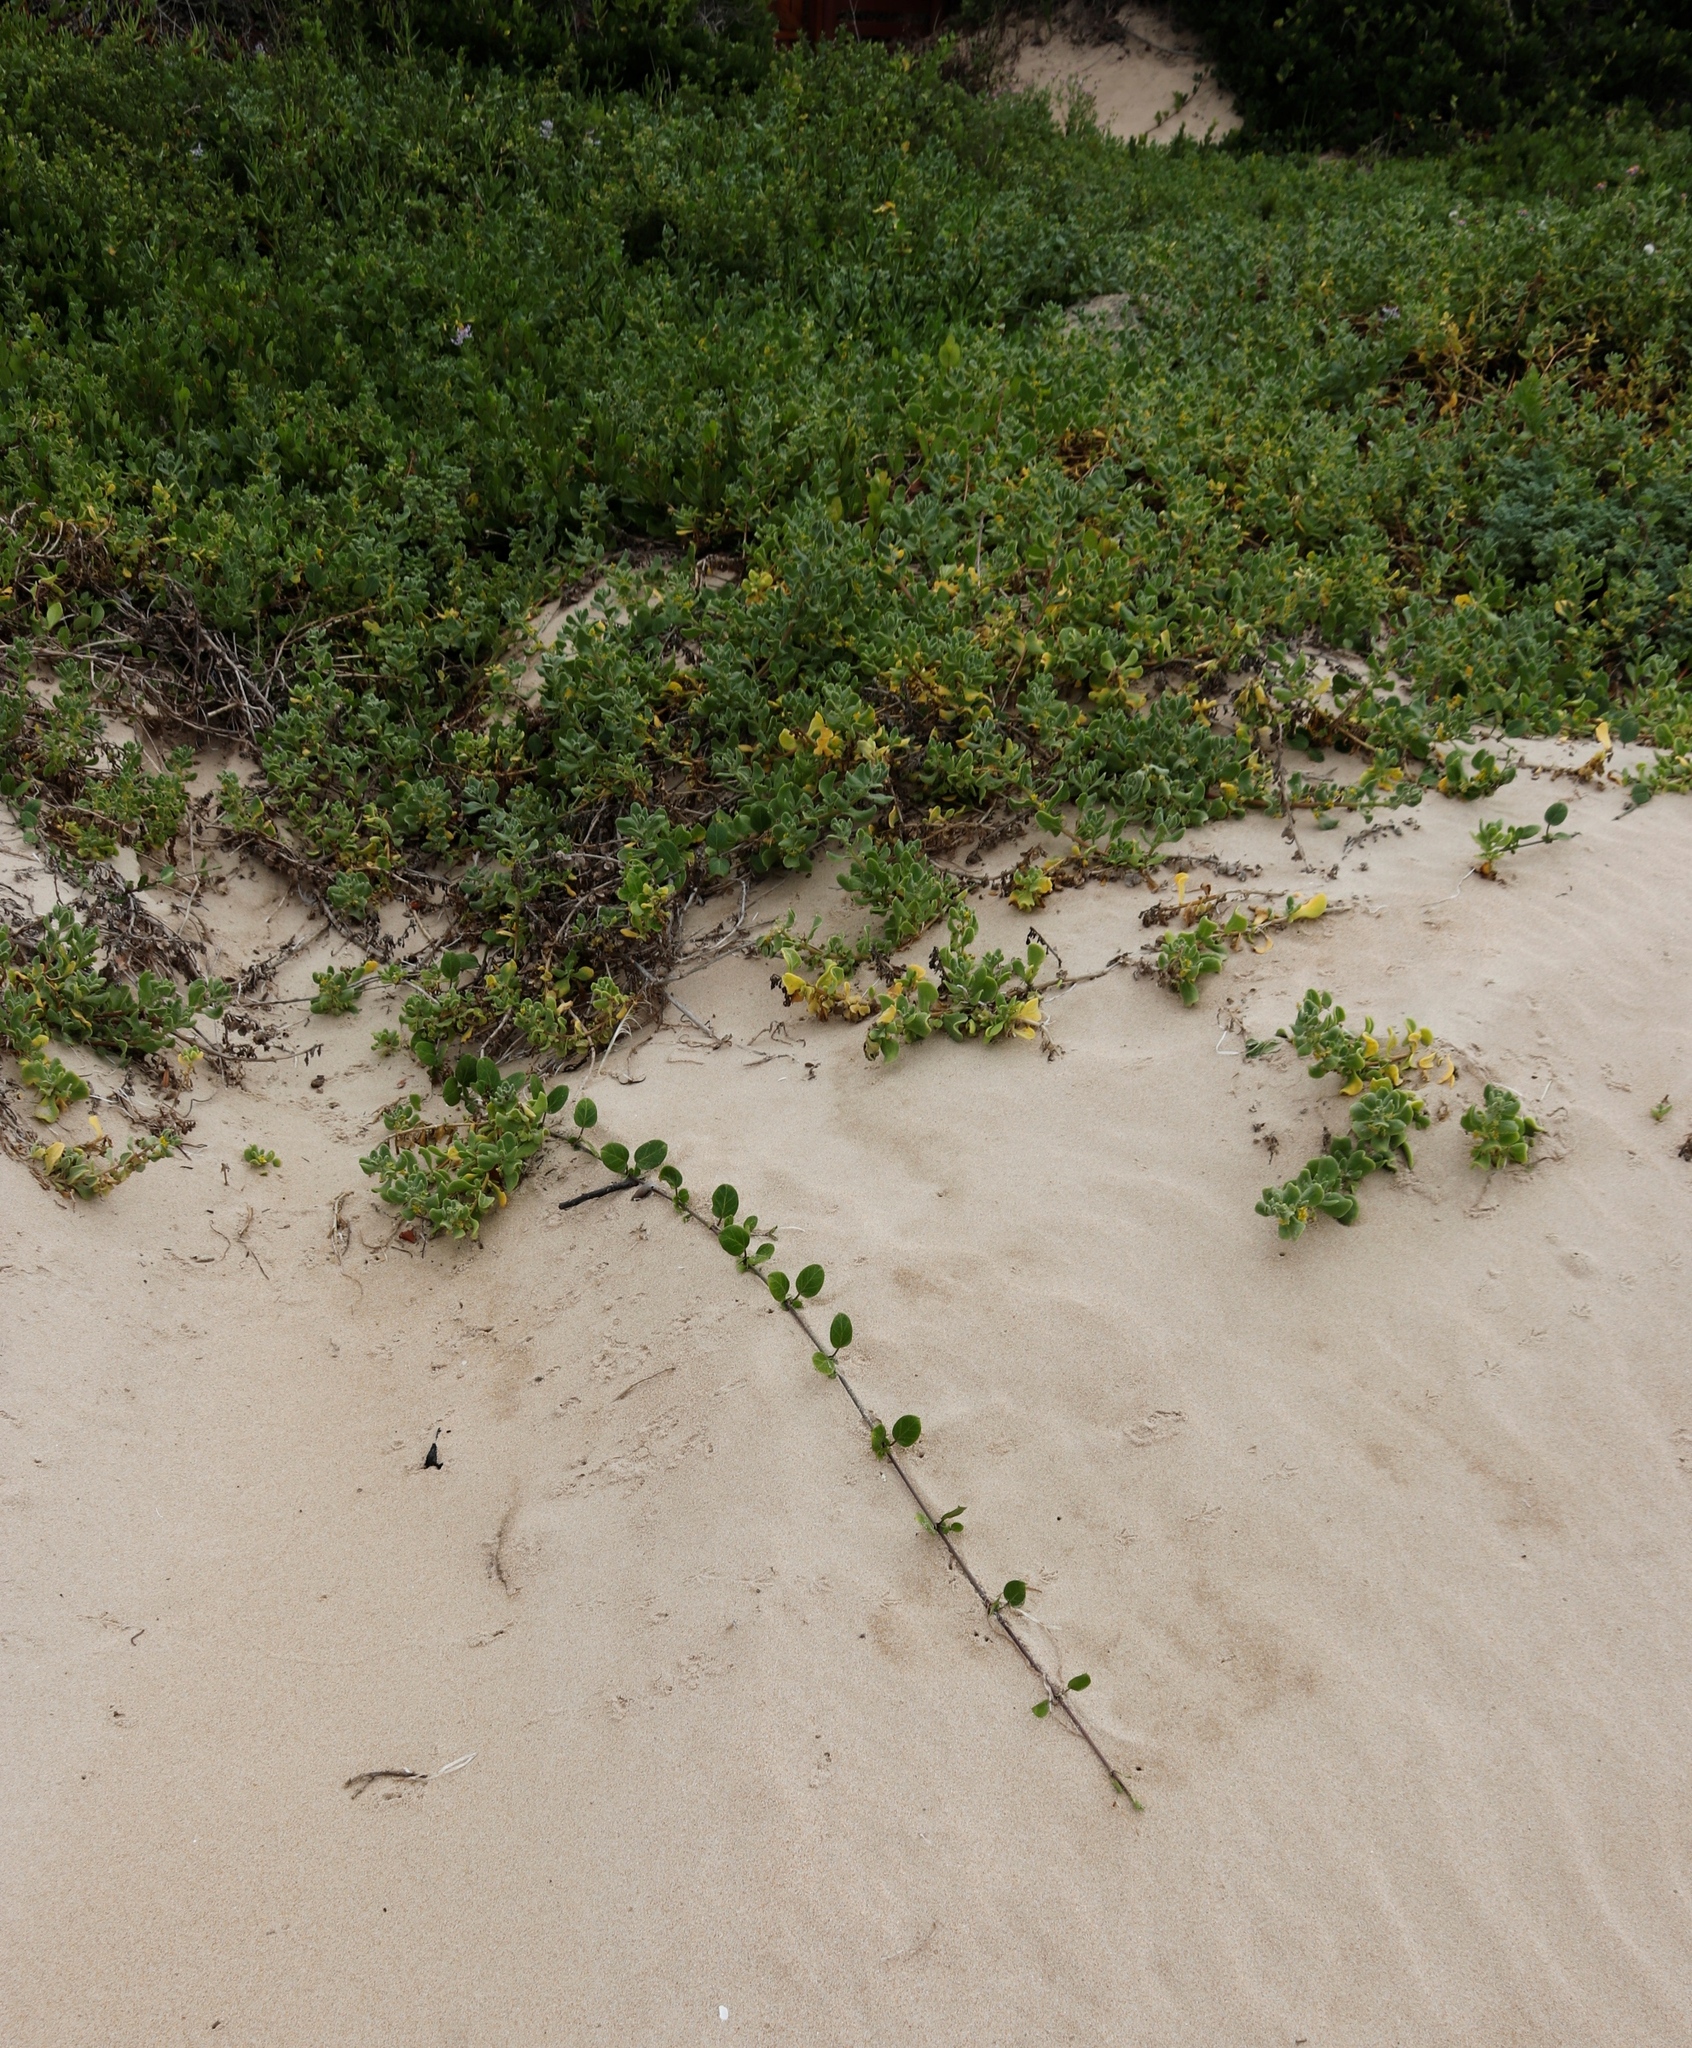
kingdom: Plantae
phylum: Tracheophyta
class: Magnoliopsida
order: Gentianales
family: Apocynaceae
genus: Cynanchum
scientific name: Cynanchum natalitium
